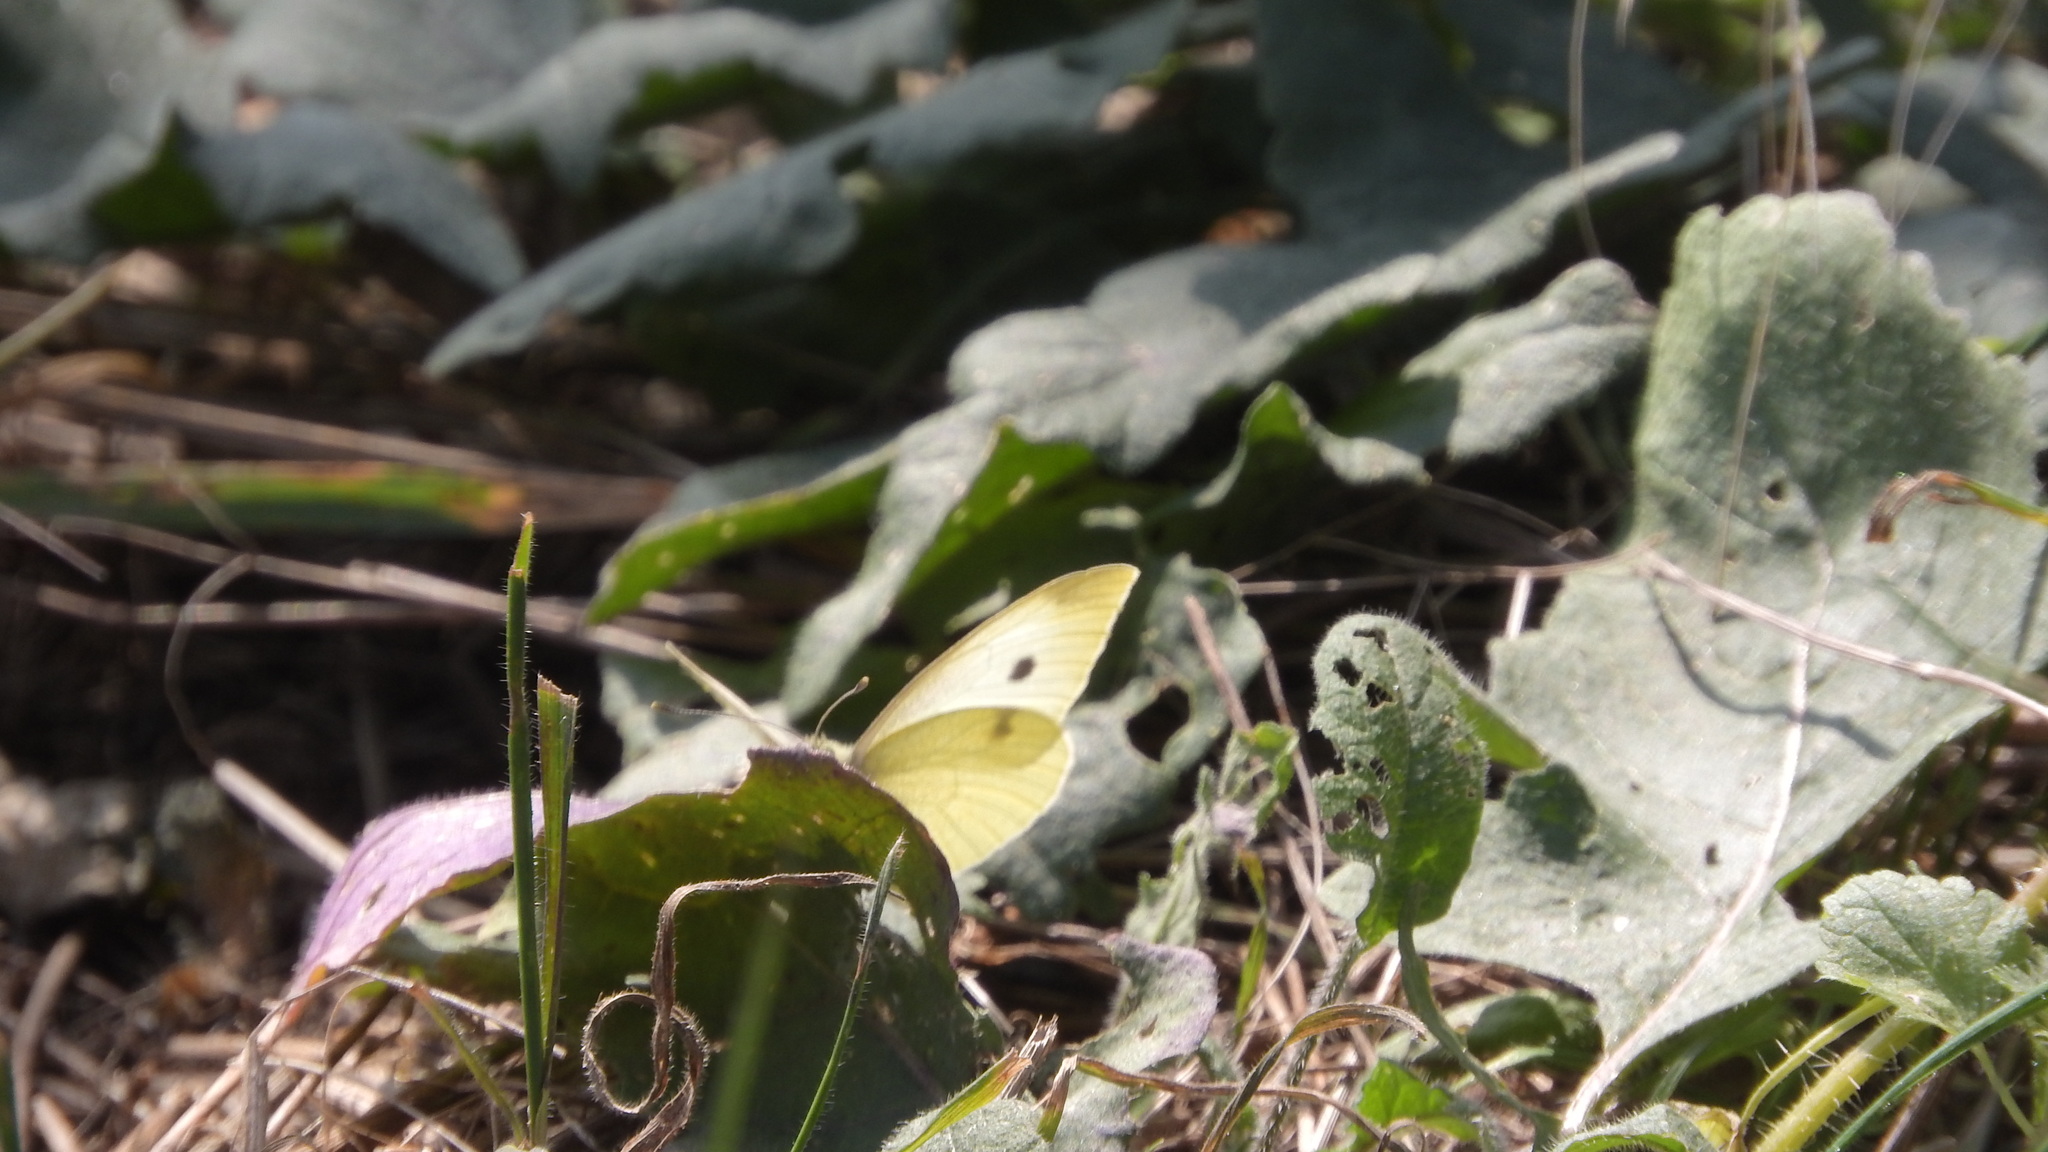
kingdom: Animalia
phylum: Arthropoda
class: Insecta
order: Lepidoptera
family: Pieridae
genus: Pieris
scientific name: Pieris rapae
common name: Small white
